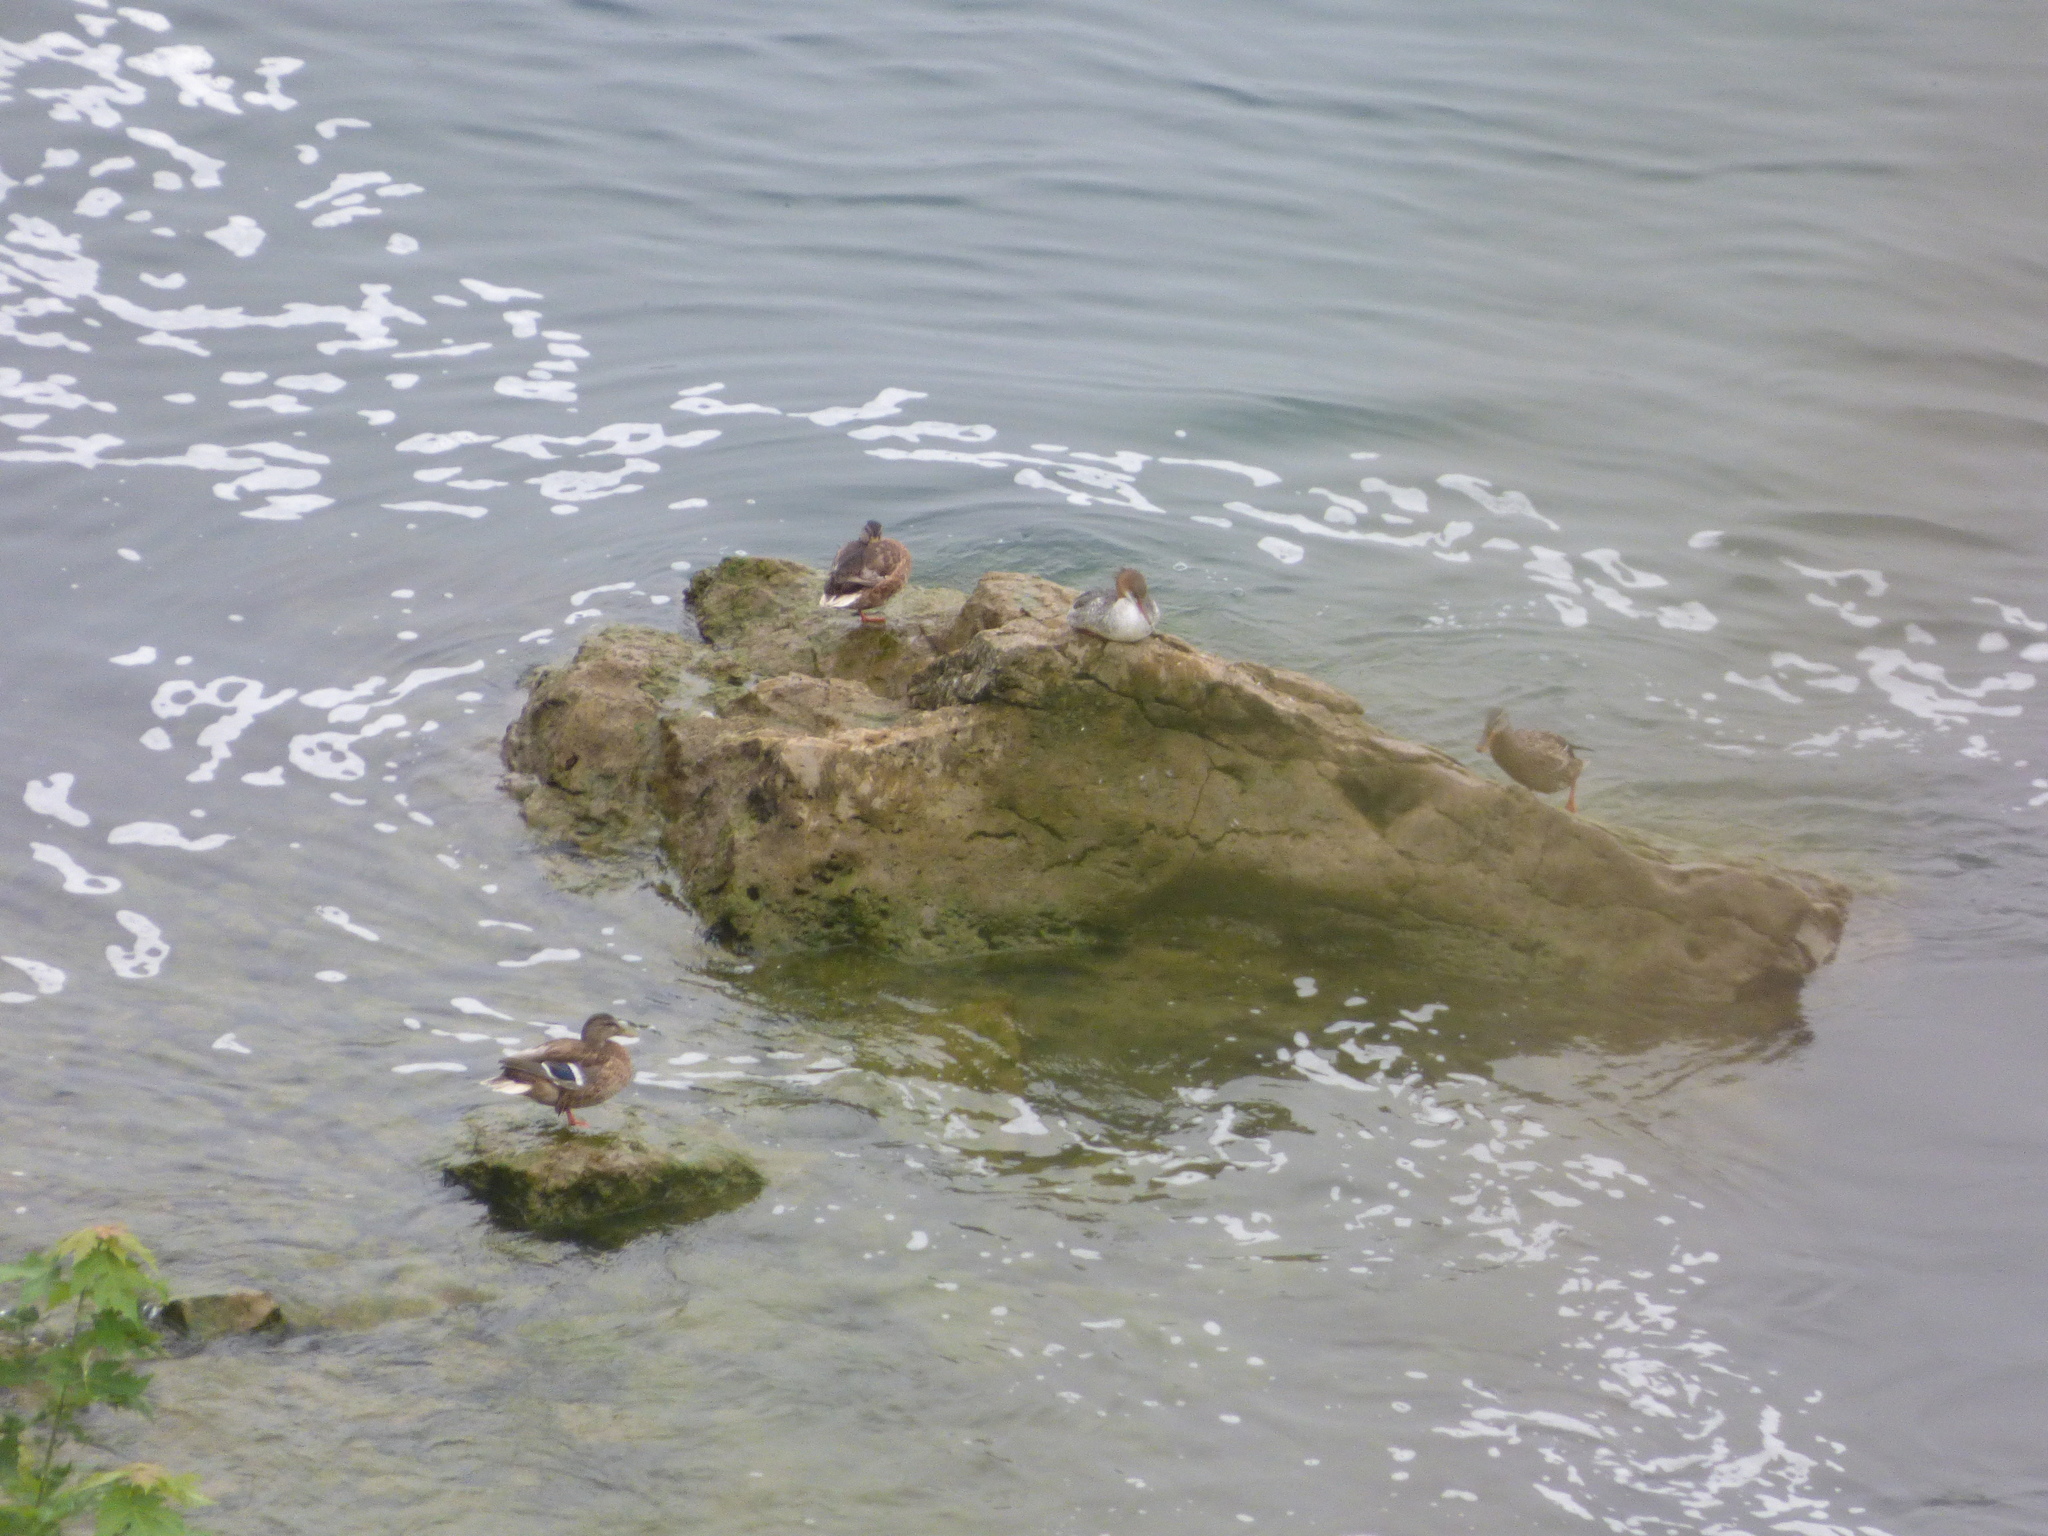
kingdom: Animalia
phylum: Chordata
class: Aves
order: Anseriformes
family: Anatidae
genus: Anas
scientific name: Anas platyrhynchos
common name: Mallard
